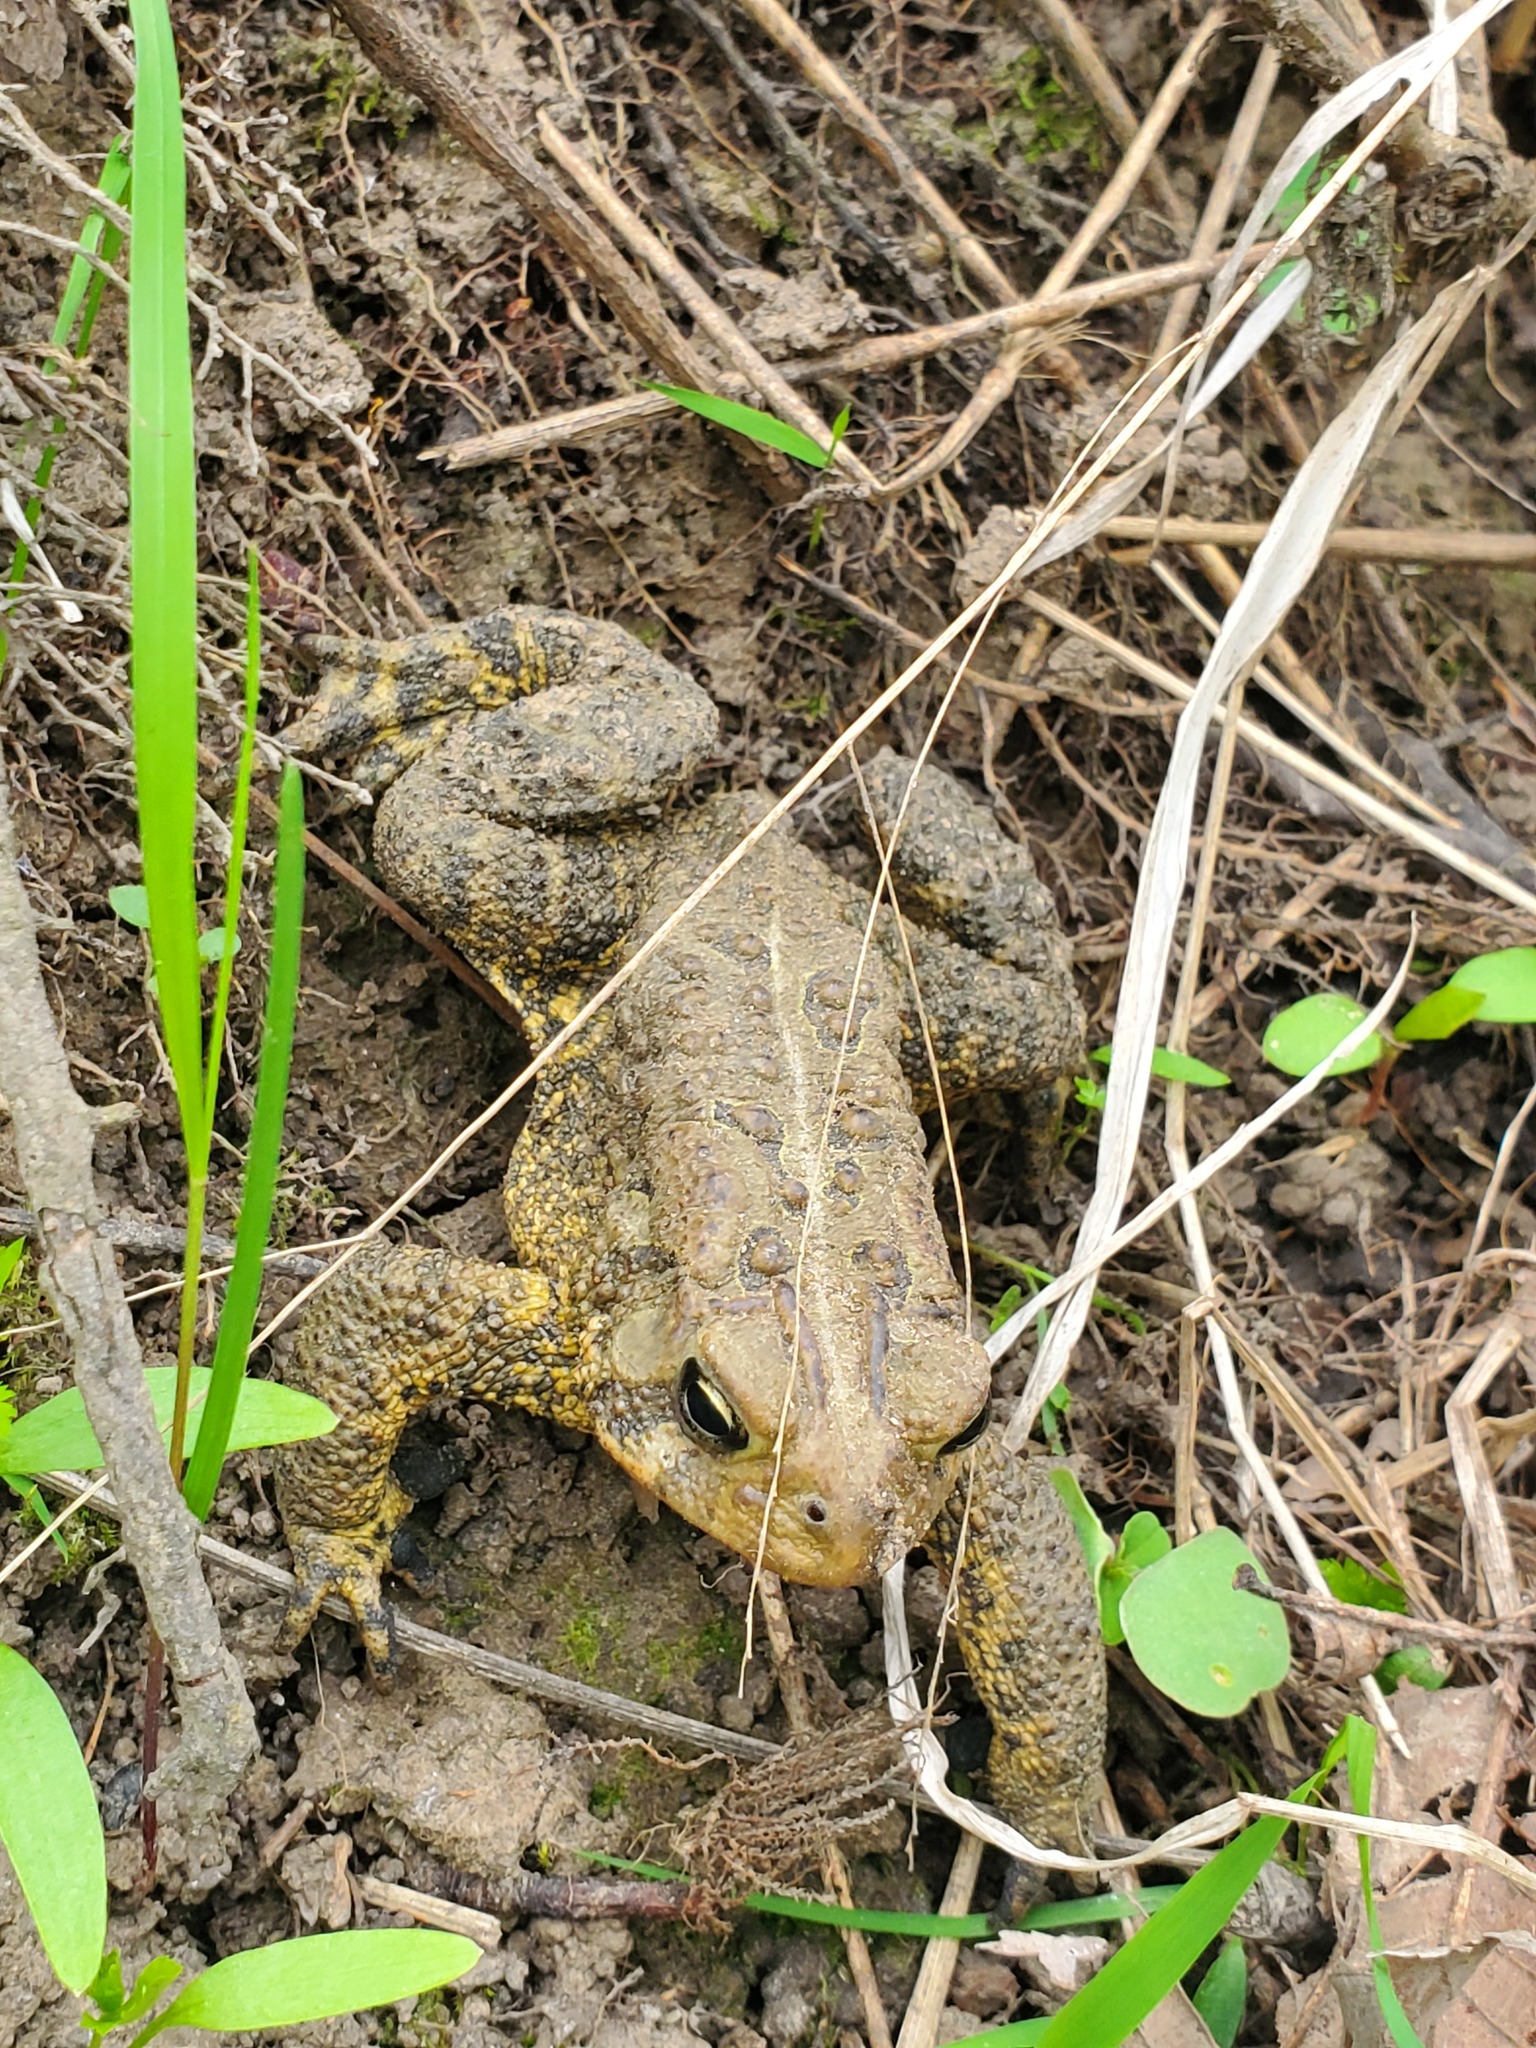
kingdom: Animalia
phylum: Chordata
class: Amphibia
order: Anura
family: Bufonidae
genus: Anaxyrus
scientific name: Anaxyrus americanus
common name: American toad
